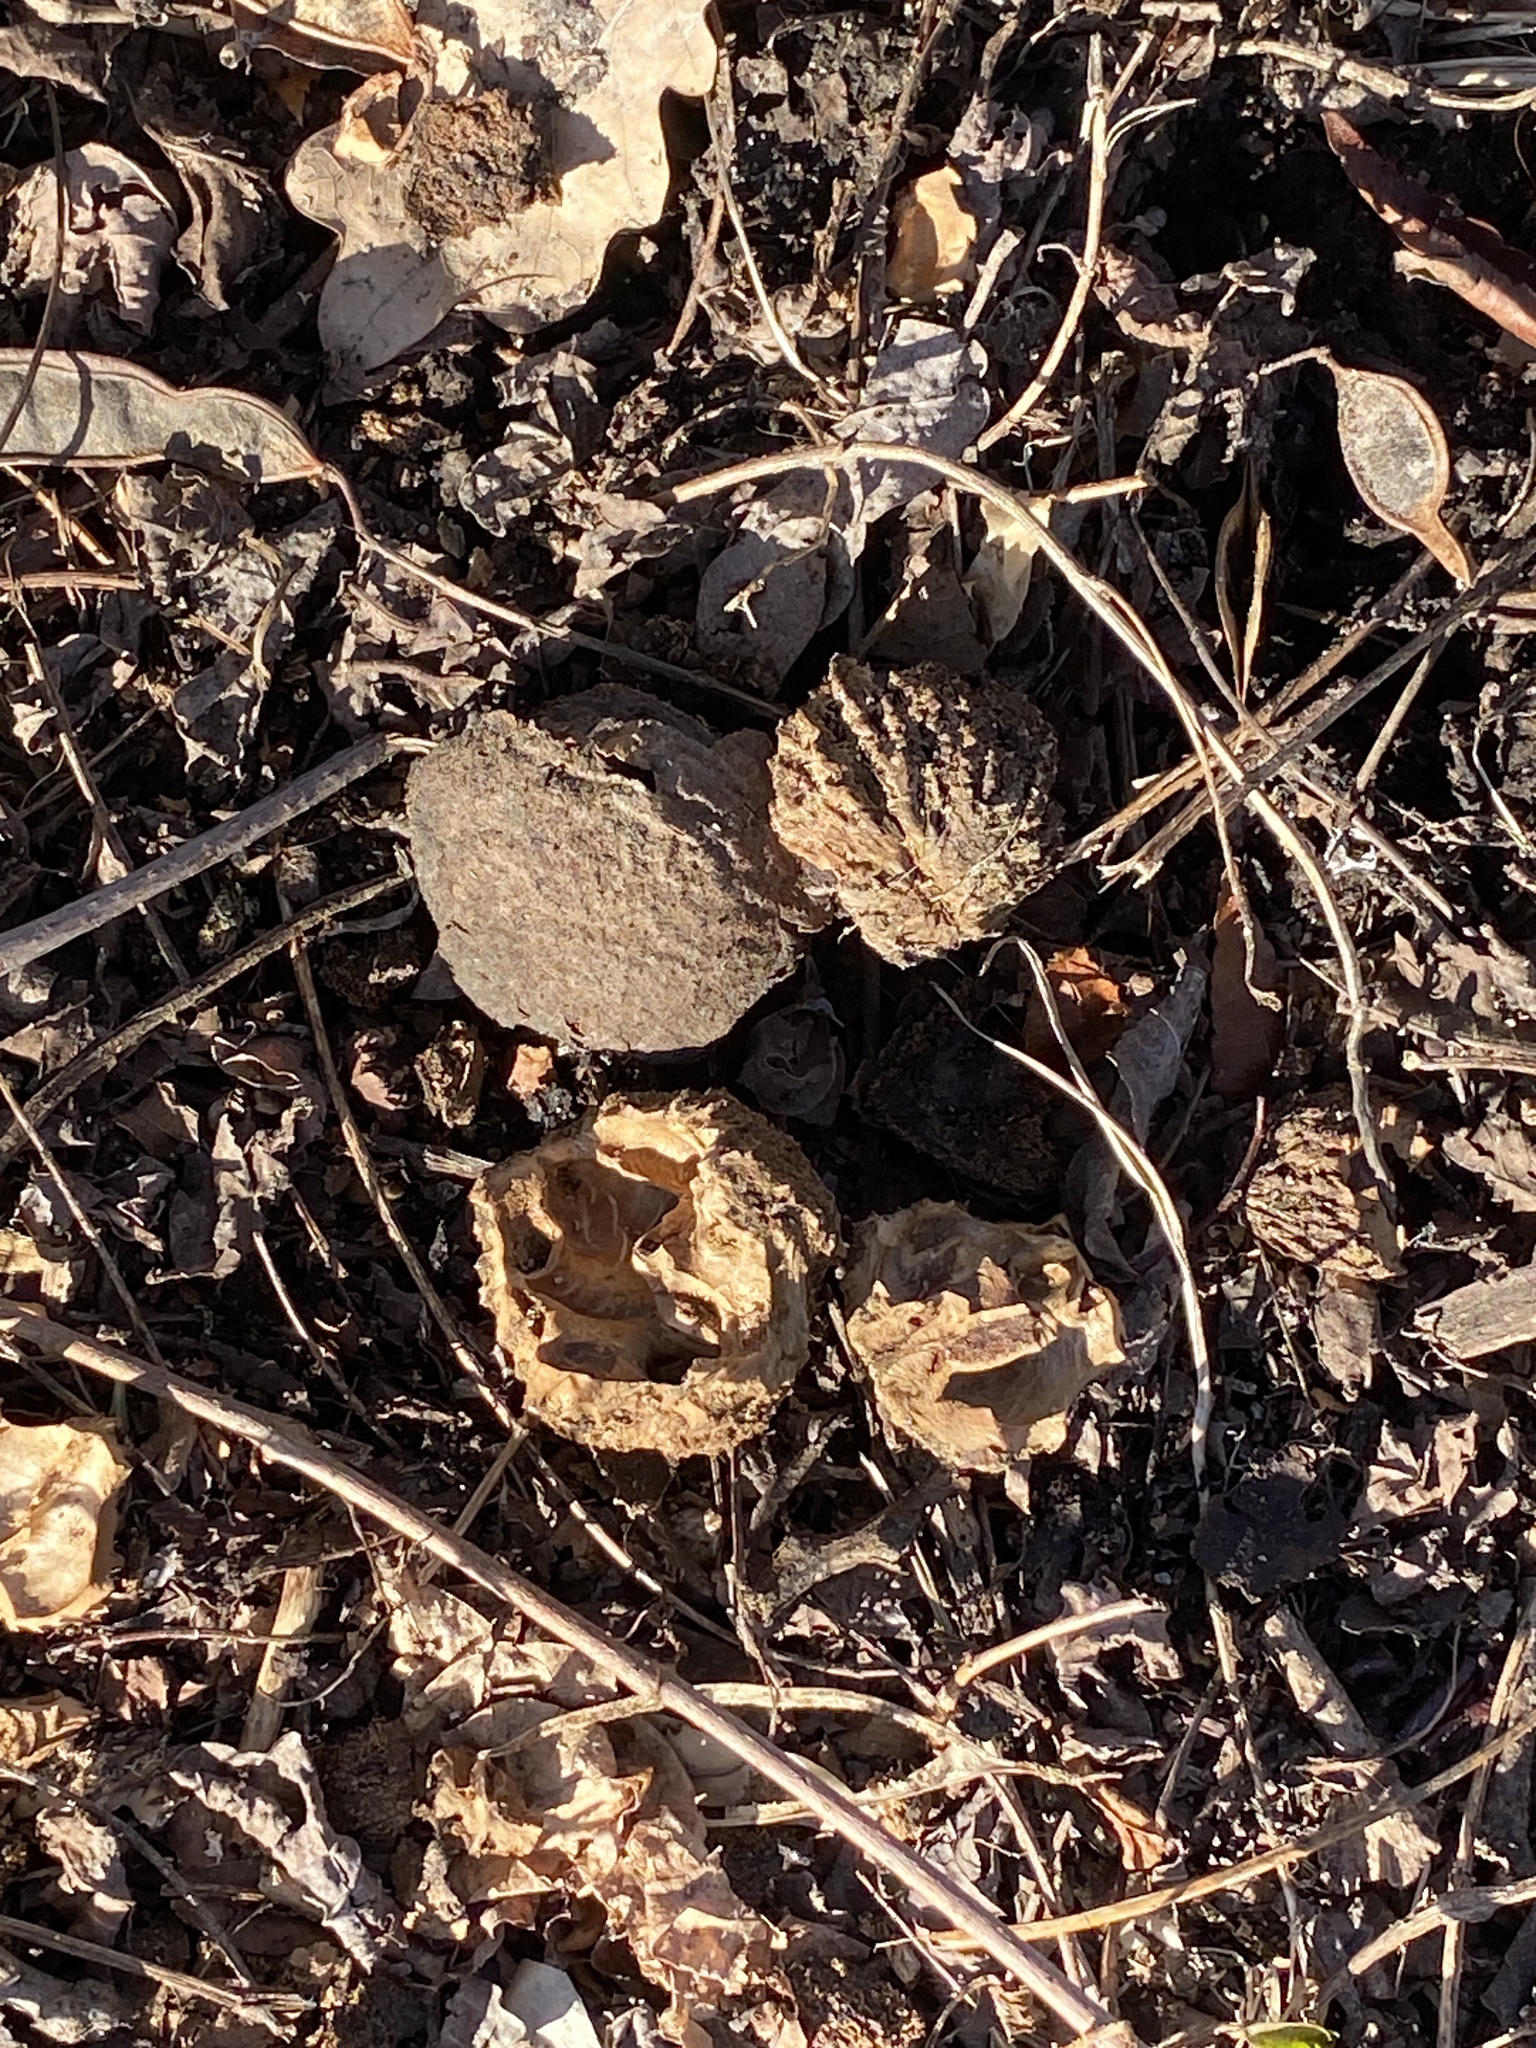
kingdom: Plantae
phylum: Tracheophyta
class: Magnoliopsida
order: Fagales
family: Juglandaceae
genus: Juglans
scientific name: Juglans nigra
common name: Black walnut
